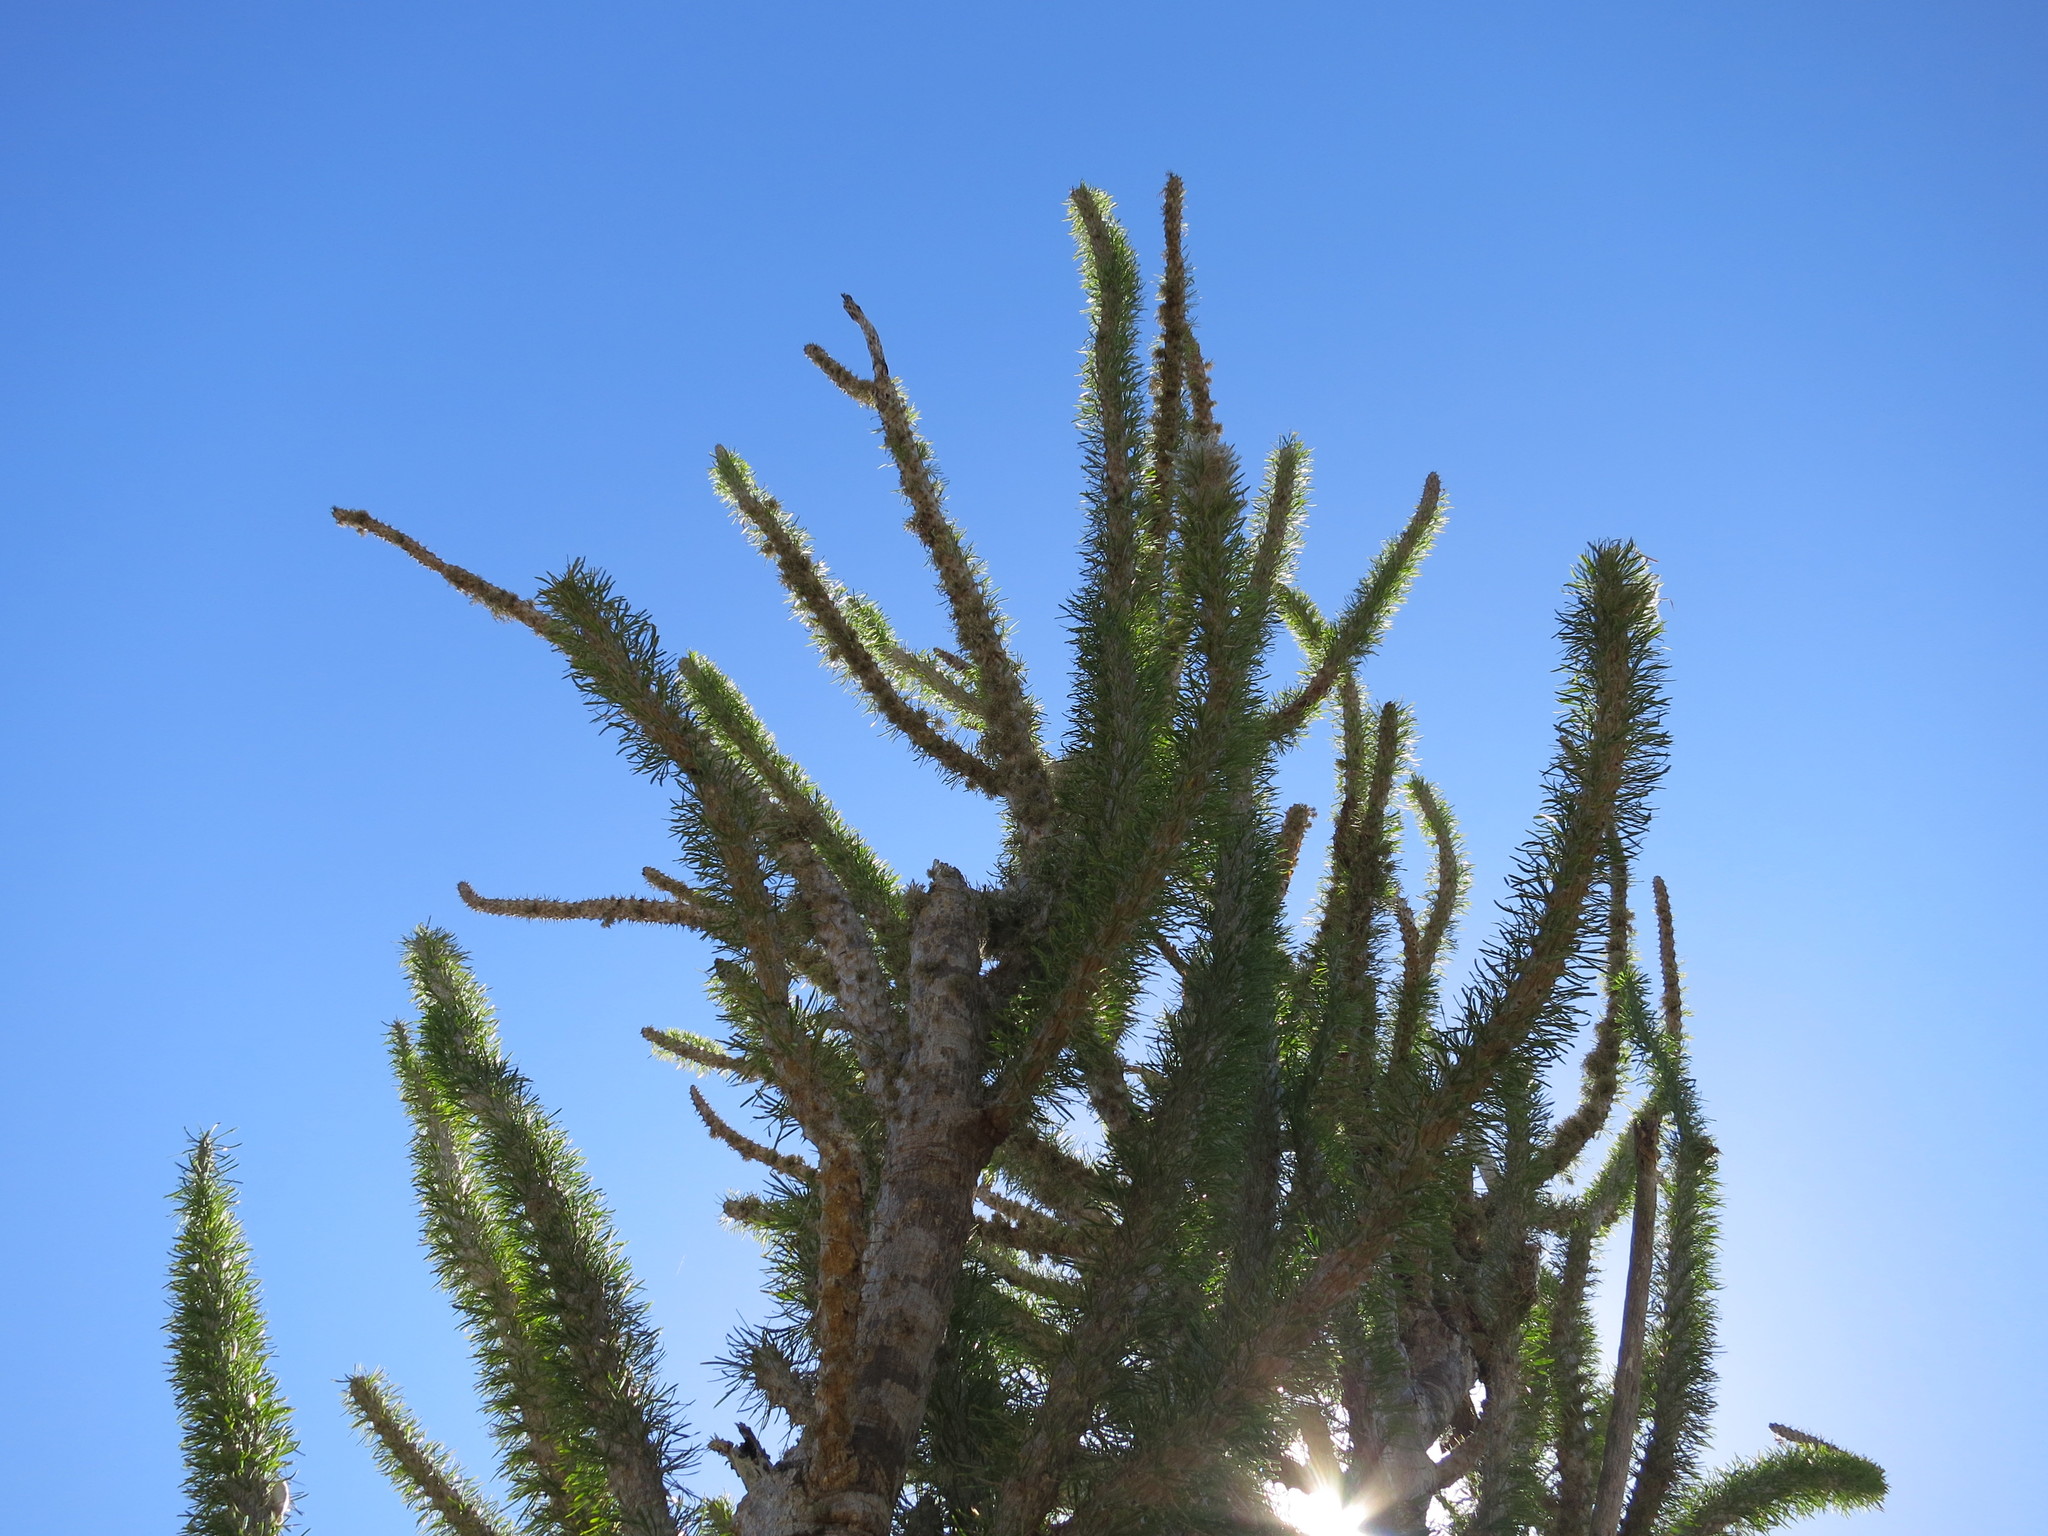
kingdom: Plantae
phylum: Tracheophyta
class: Magnoliopsida
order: Caryophyllales
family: Didiereaceae
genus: Didierea
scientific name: Didierea madagascariensis
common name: Octopus-tree
